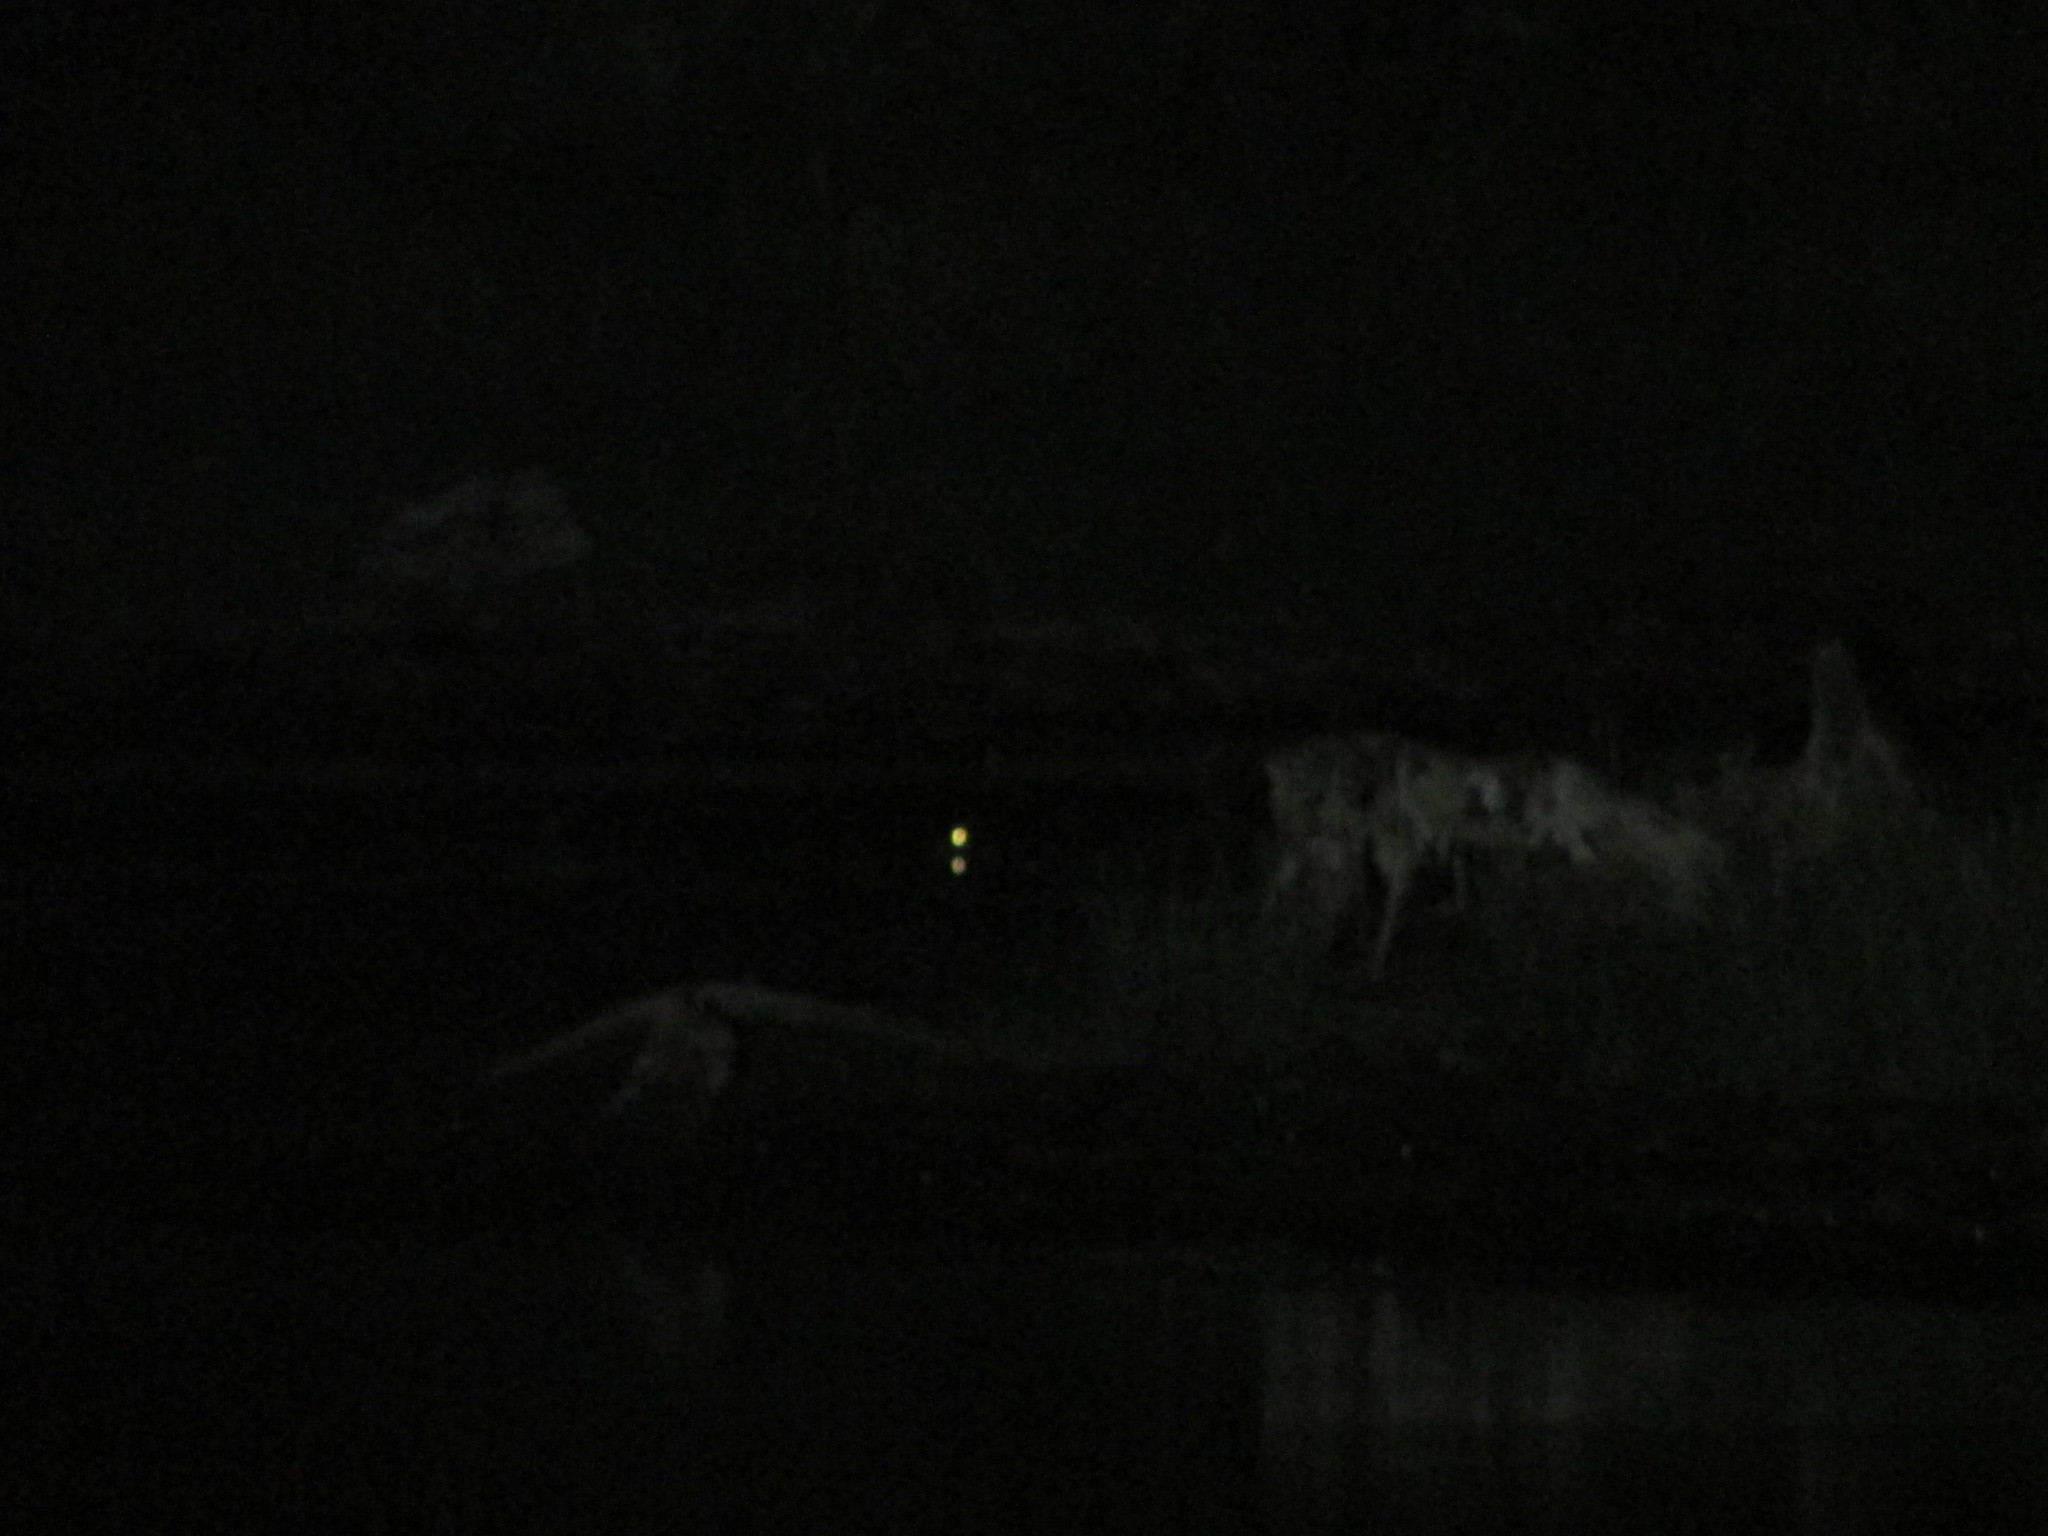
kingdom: Animalia
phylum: Chordata
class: Crocodylia
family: Crocodylidae
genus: Crocodylus
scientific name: Crocodylus porosus
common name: Saltwater crocodile
